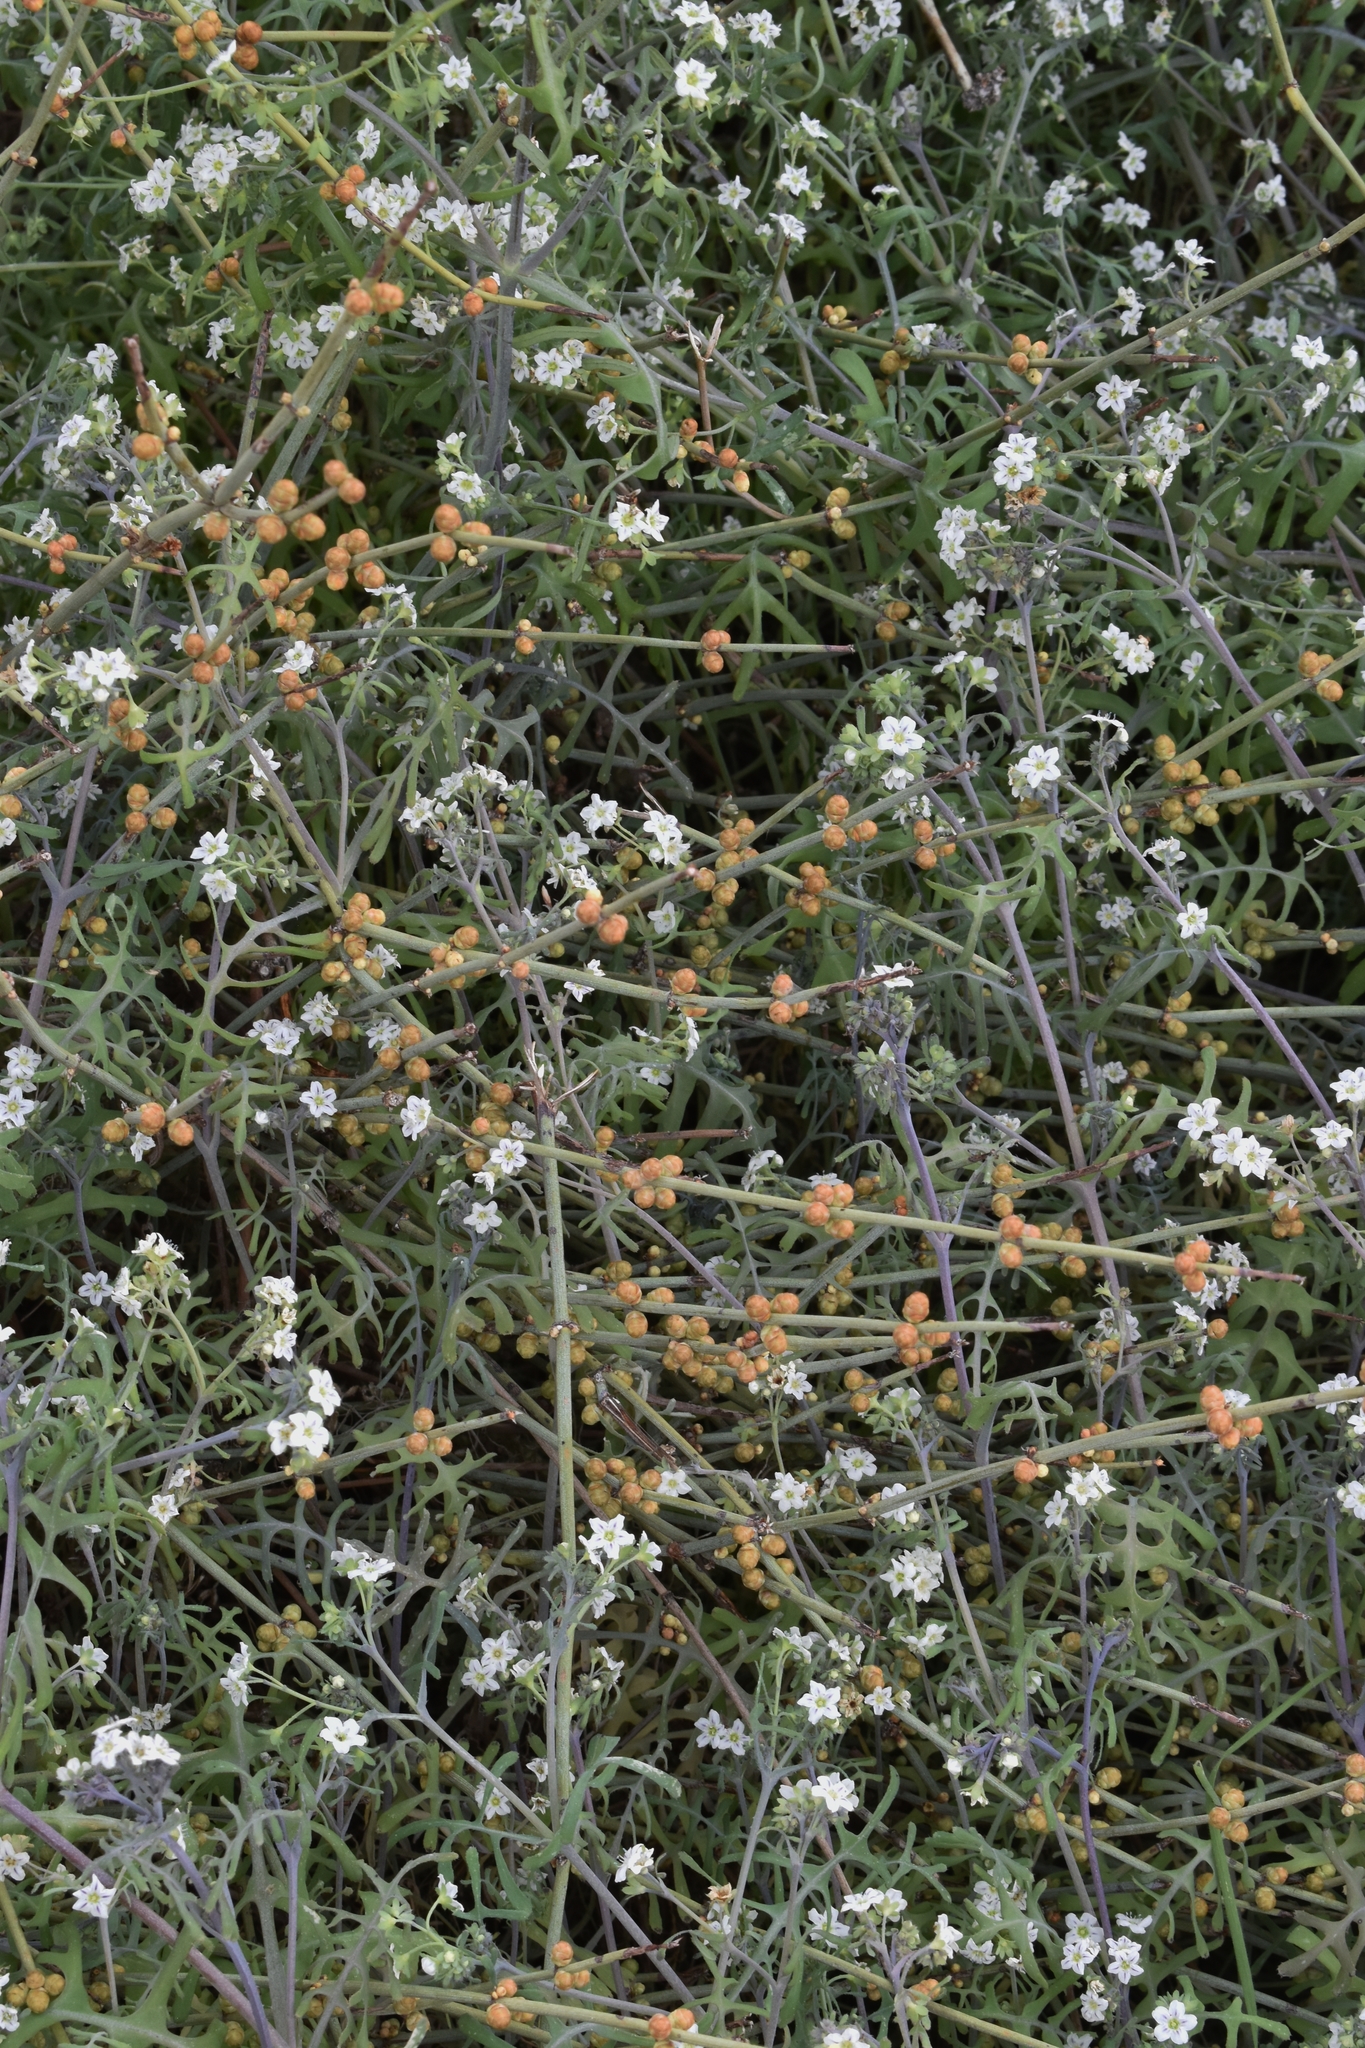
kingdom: Plantae
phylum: Tracheophyta
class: Magnoliopsida
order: Boraginales
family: Hydrophyllaceae
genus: Pholistoma
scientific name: Pholistoma membranaceum
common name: White fiesta-flower
